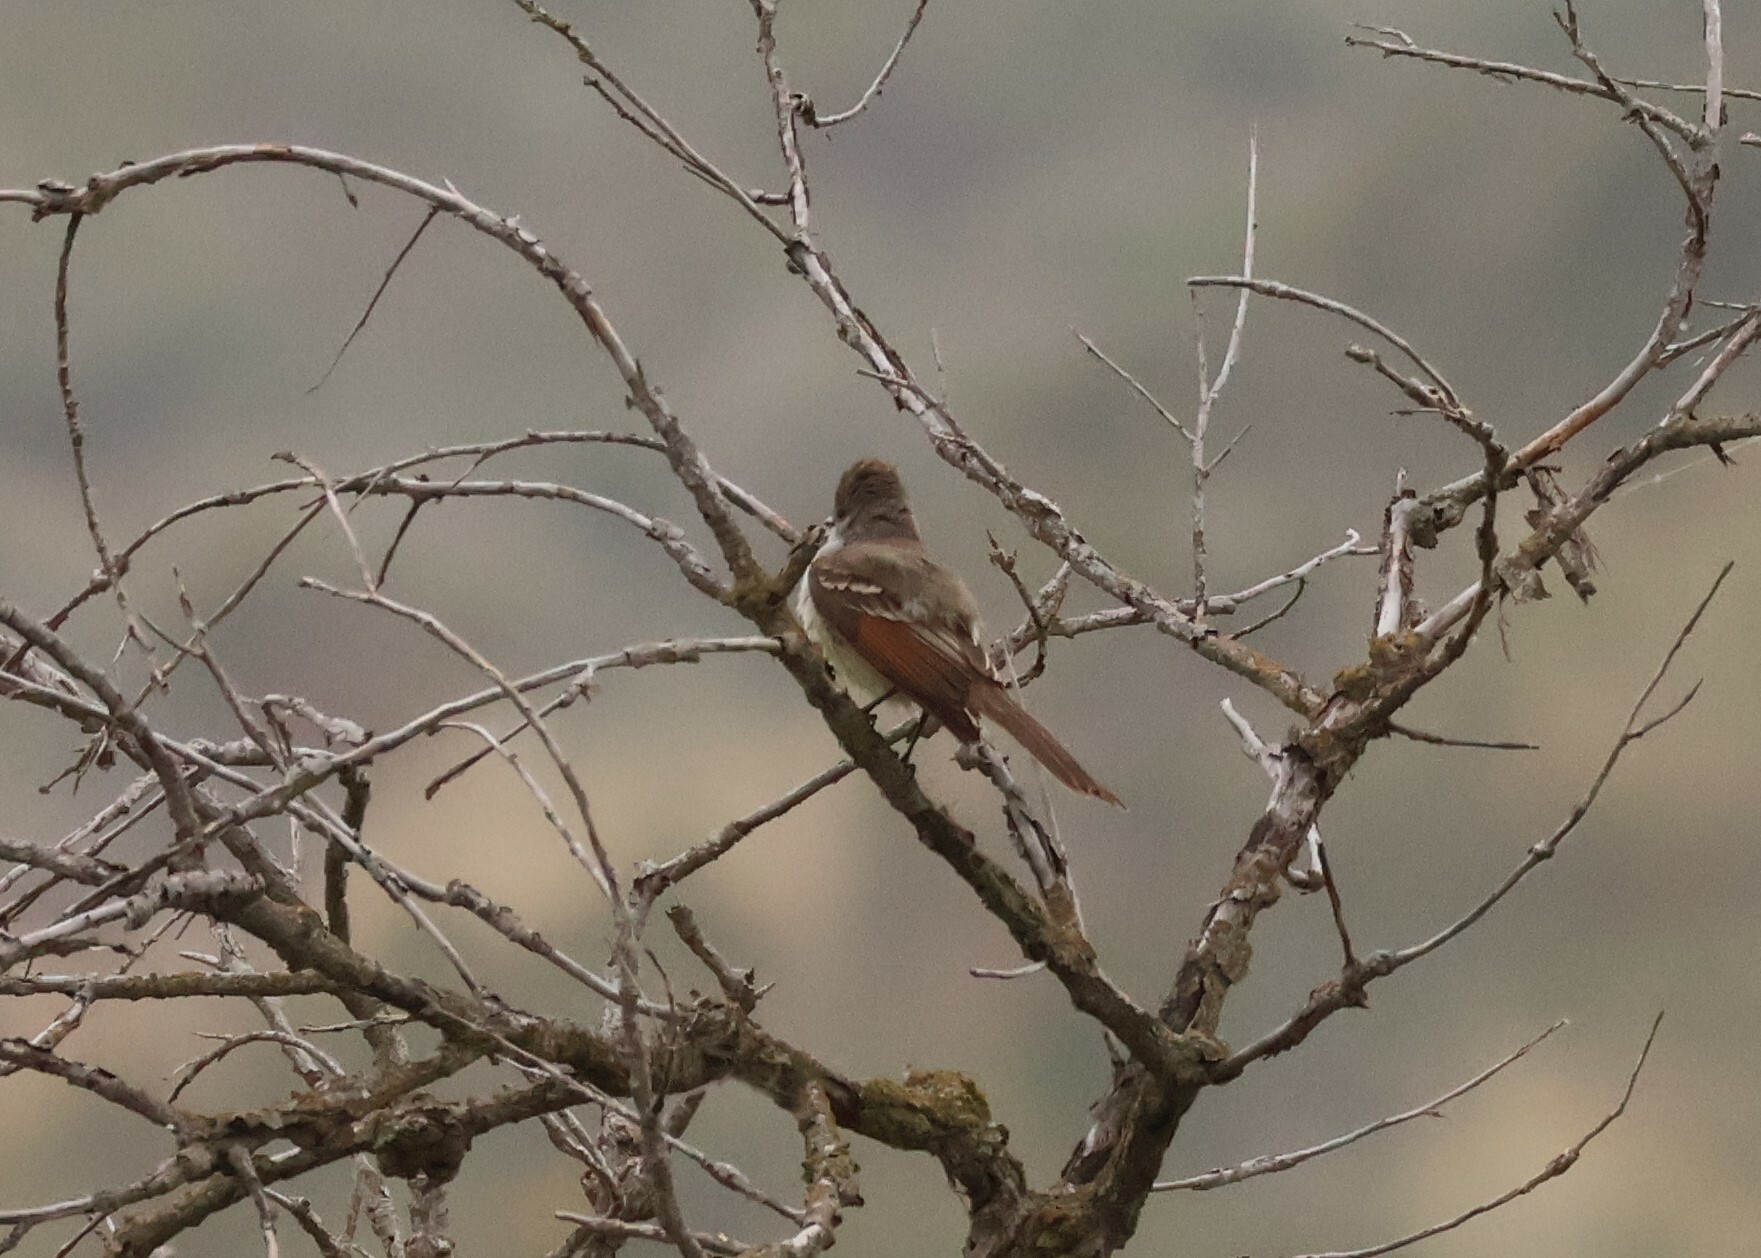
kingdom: Animalia
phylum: Chordata
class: Aves
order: Passeriformes
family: Tyrannidae
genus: Myiarchus
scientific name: Myiarchus cinerascens
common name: Ash-throated flycatcher
